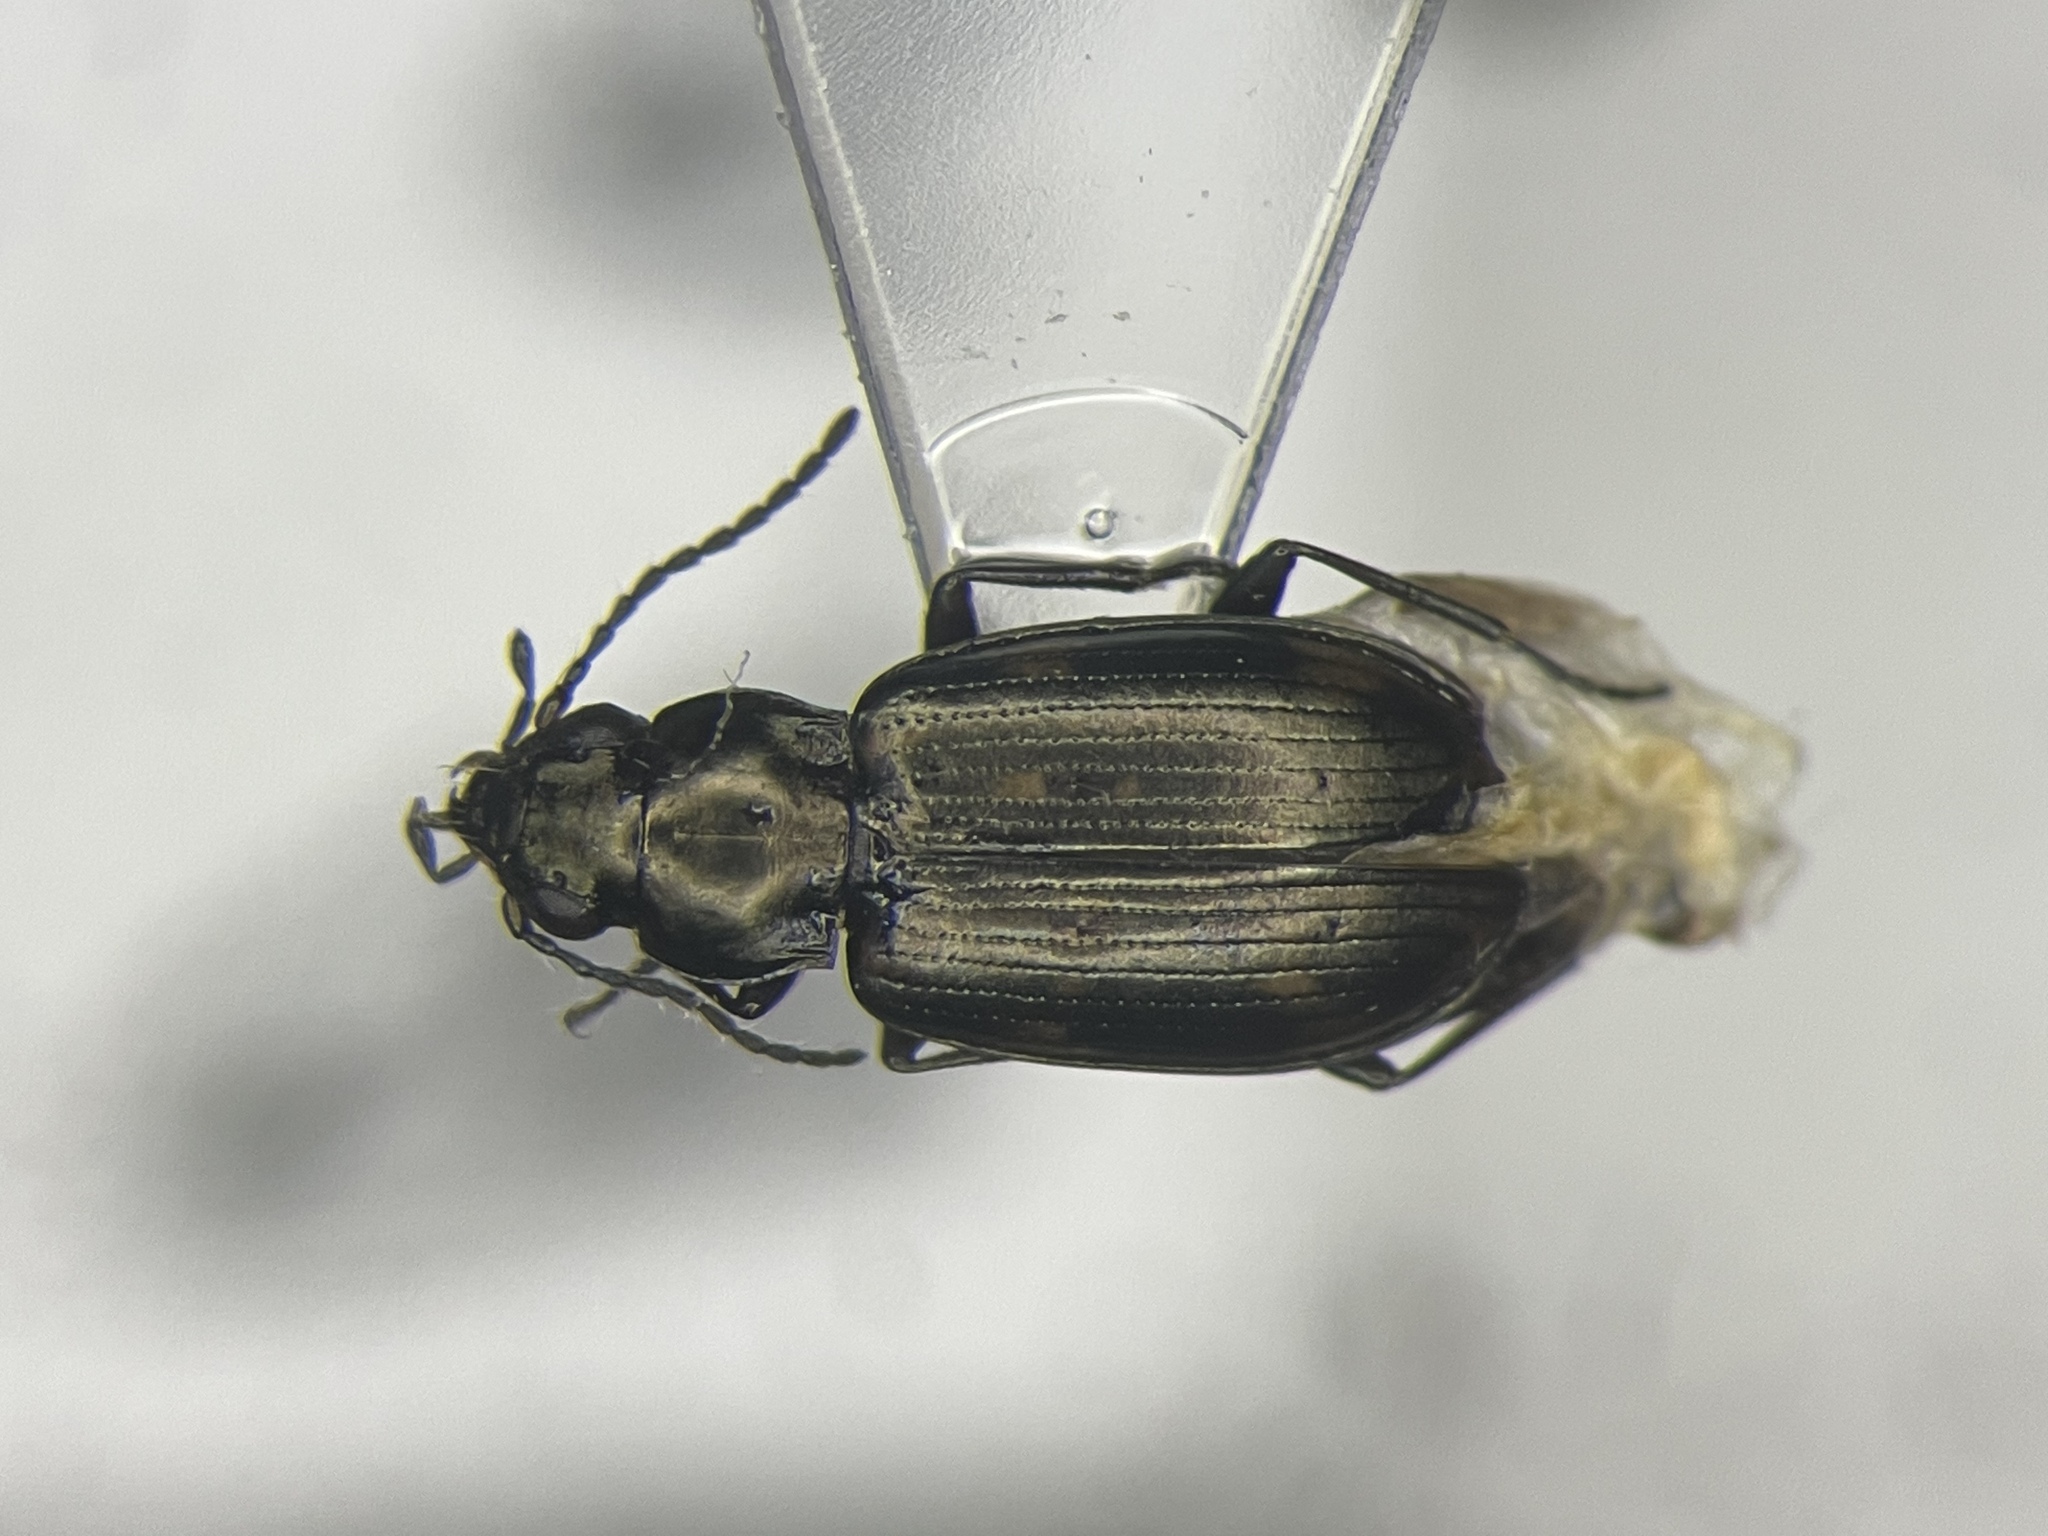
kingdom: Animalia
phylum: Arthropoda
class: Insecta
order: Coleoptera
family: Carabidae
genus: Bembidion
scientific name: Bembidion nigripes
